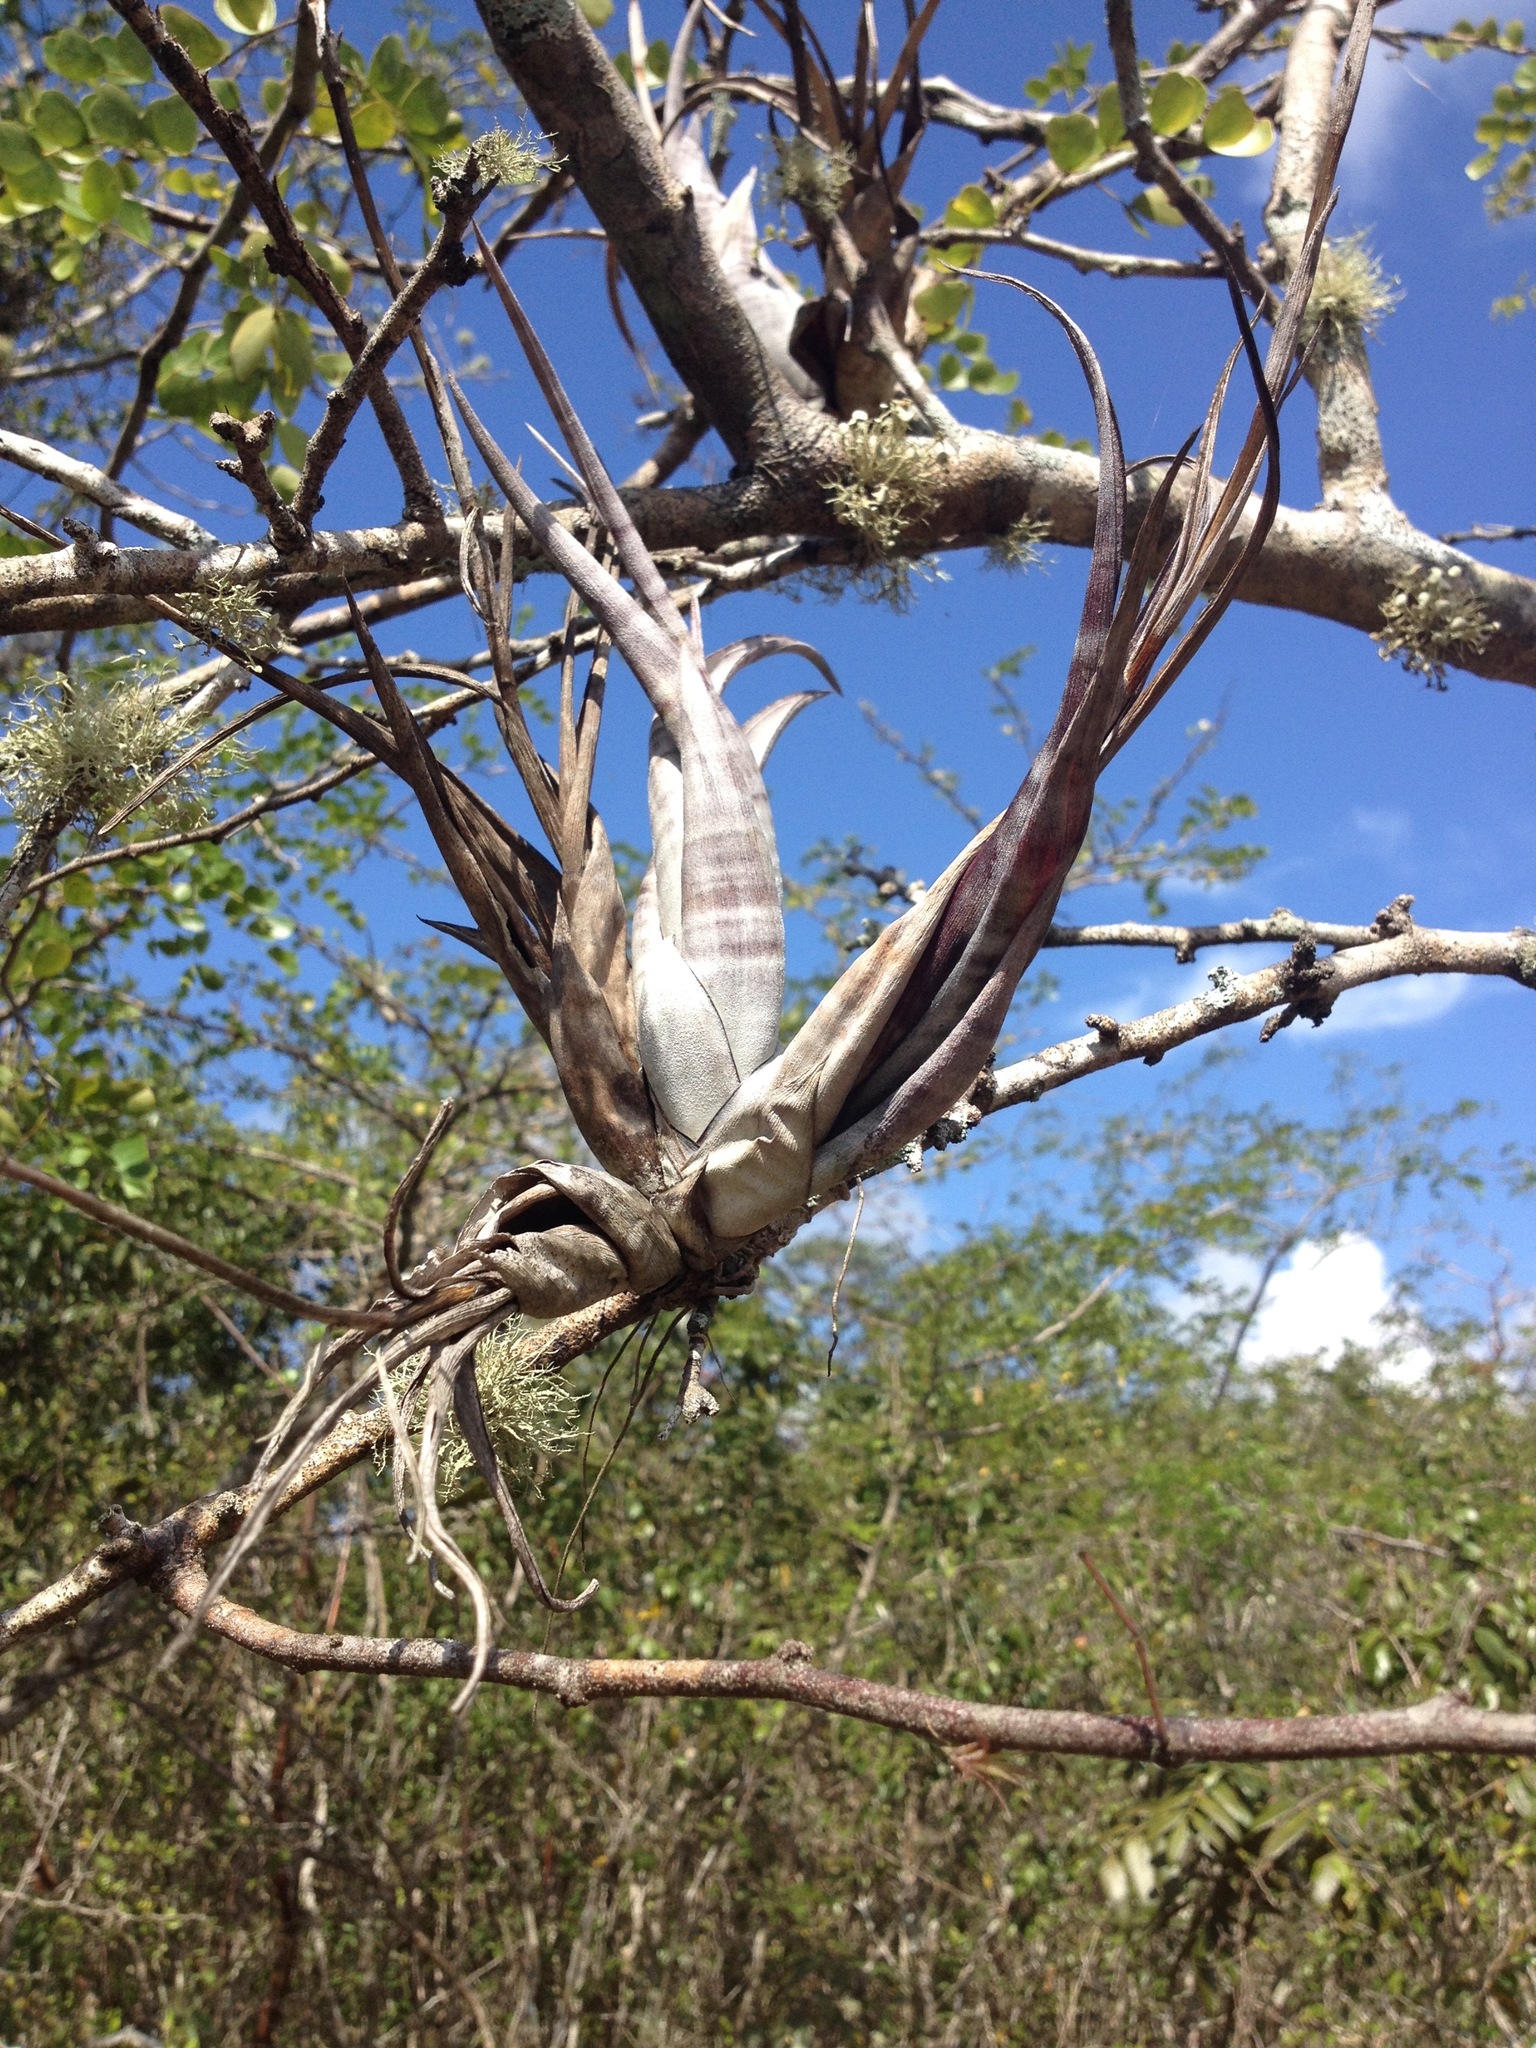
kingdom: Plantae
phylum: Tracheophyta
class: Liliopsida
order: Poales
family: Bromeliaceae
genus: Tillandsia
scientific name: Tillandsia flexuosa
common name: Banded airplant
